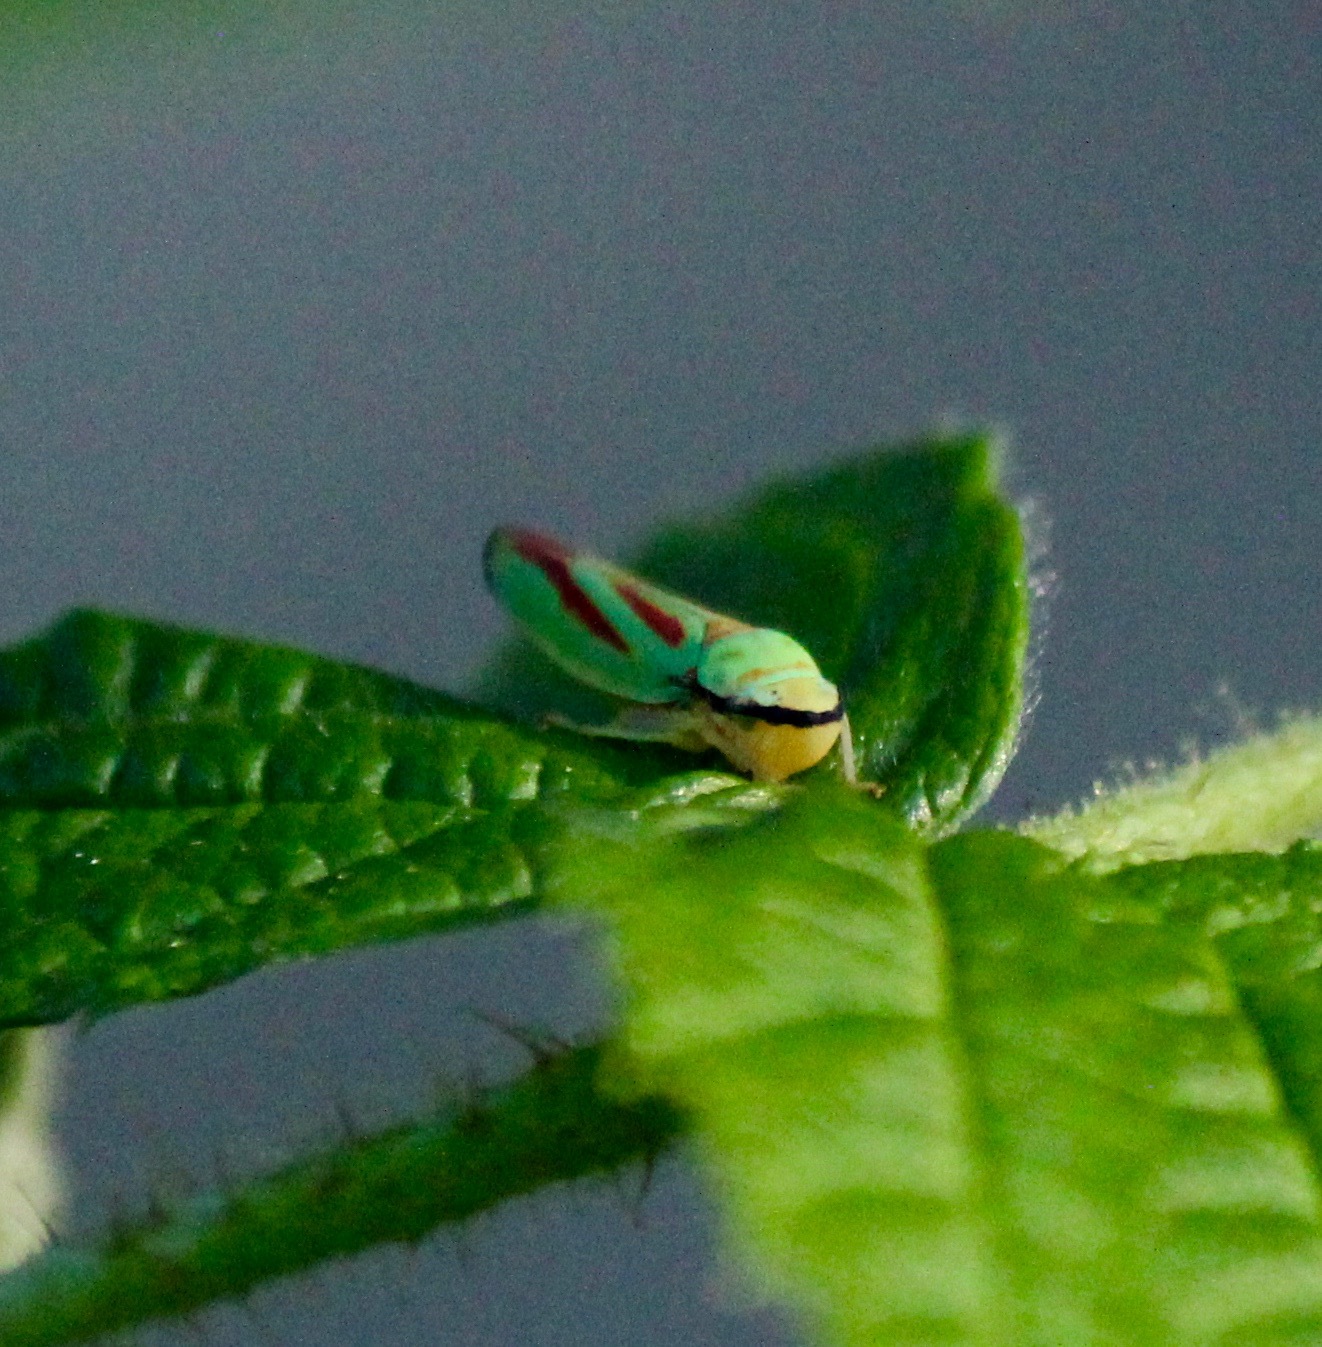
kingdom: Animalia
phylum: Arthropoda
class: Insecta
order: Hemiptera
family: Cicadellidae
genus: Graphocephala
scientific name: Graphocephala fennahi
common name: Rhododendron leafhopper
